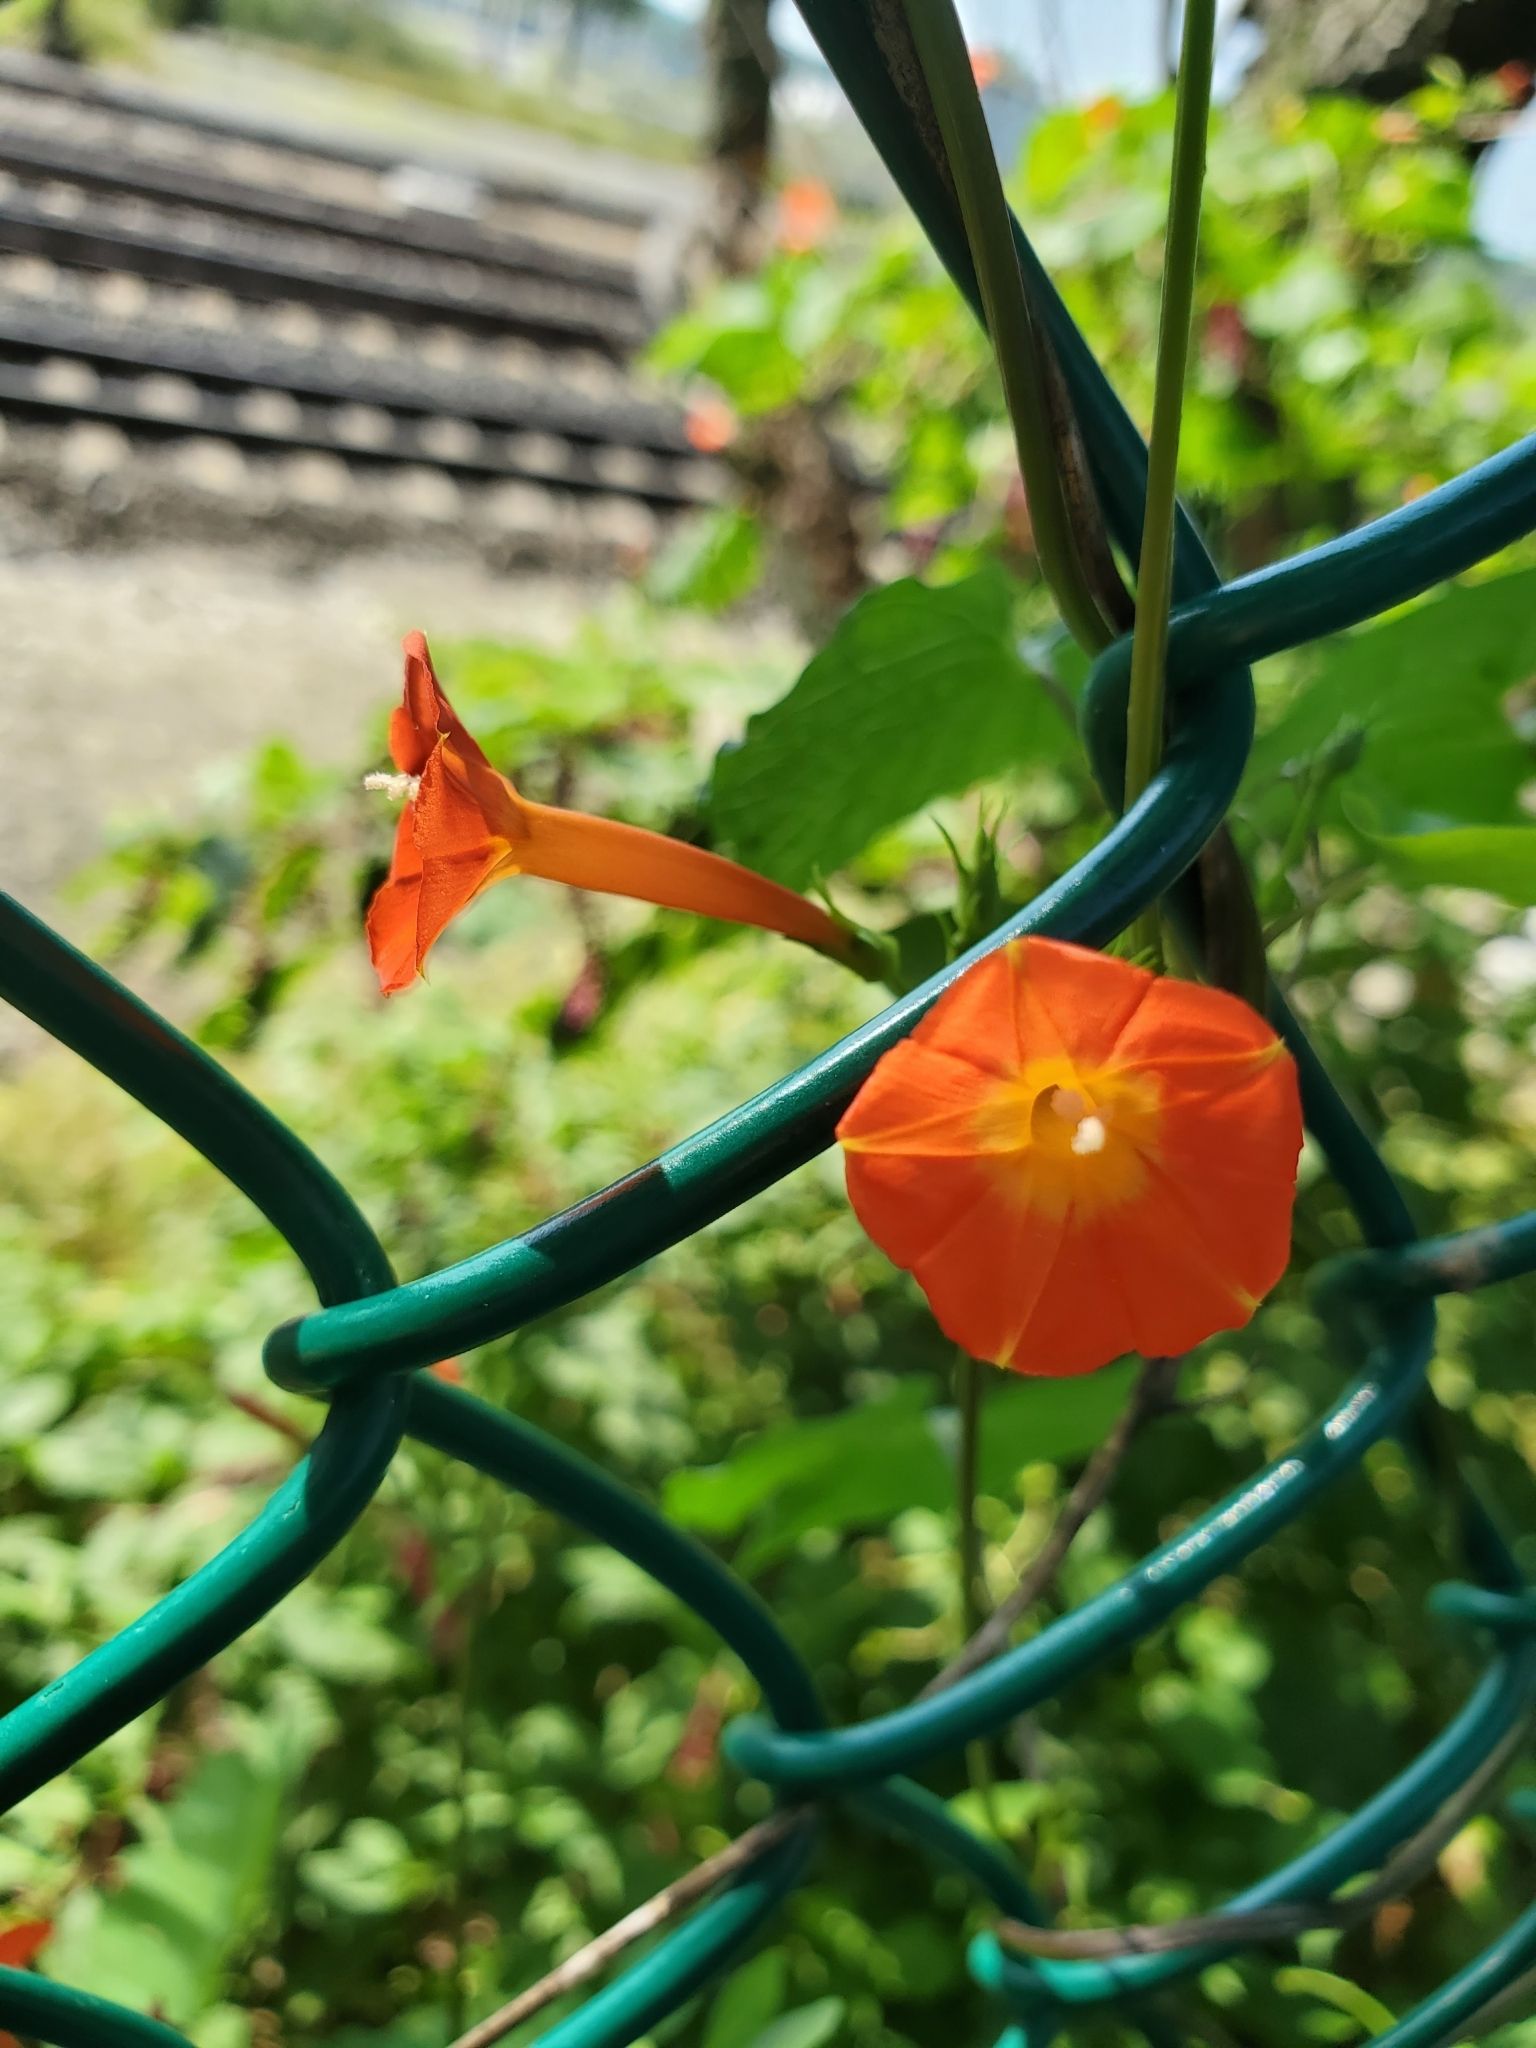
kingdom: Plantae
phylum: Tracheophyta
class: Magnoliopsida
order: Solanales
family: Convolvulaceae
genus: Ipomoea
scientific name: Ipomoea coccinea
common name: Red morning-glory
